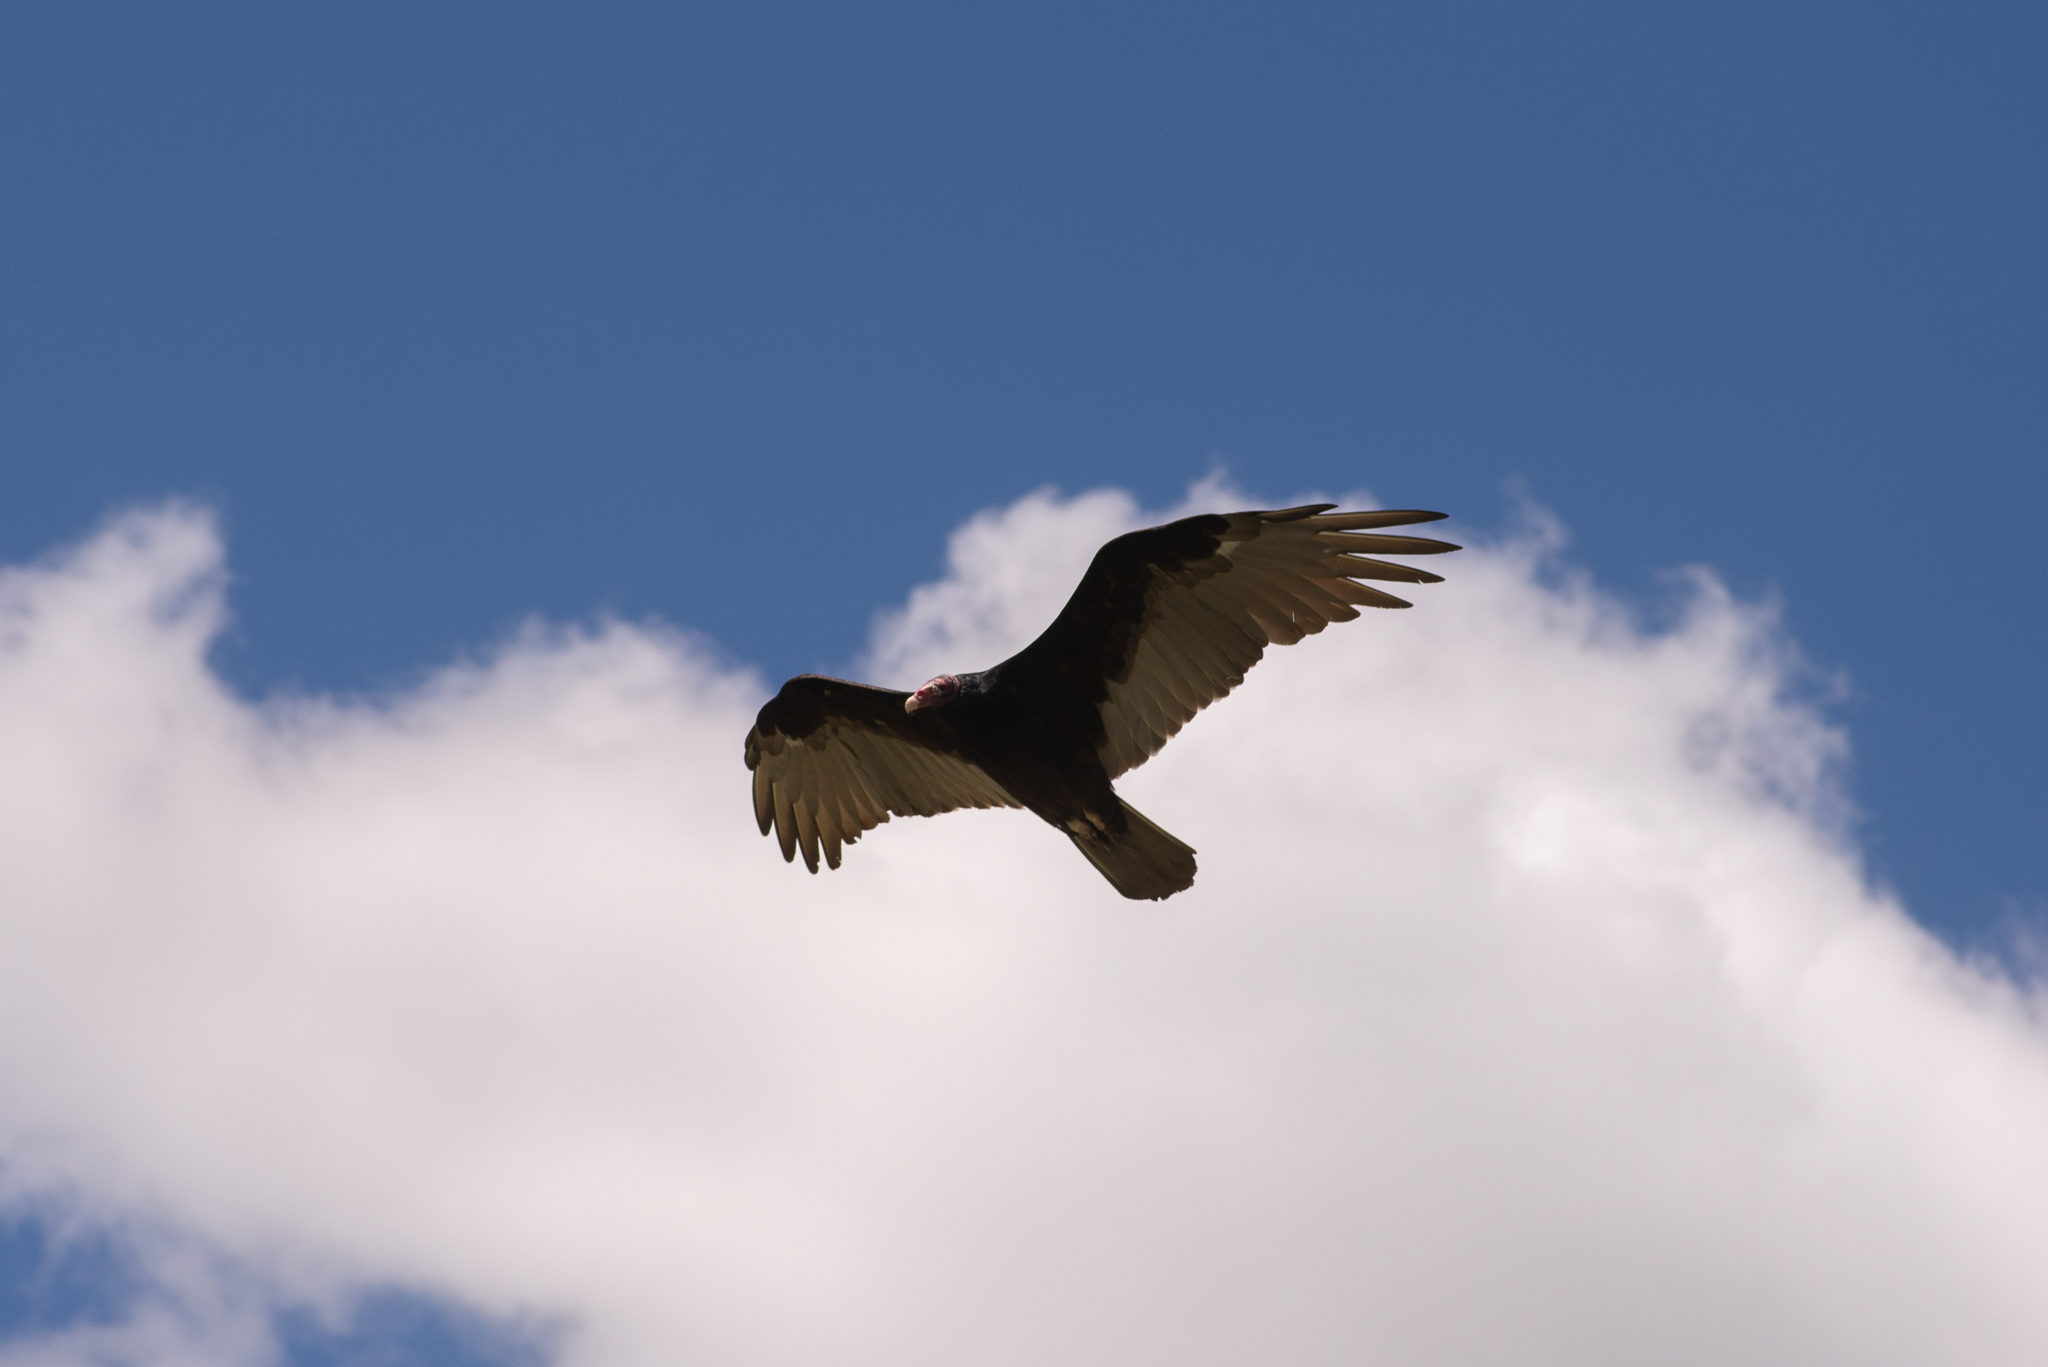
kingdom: Animalia
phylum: Chordata
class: Aves
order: Accipitriformes
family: Cathartidae
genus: Cathartes
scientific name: Cathartes aura
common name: Turkey vulture
